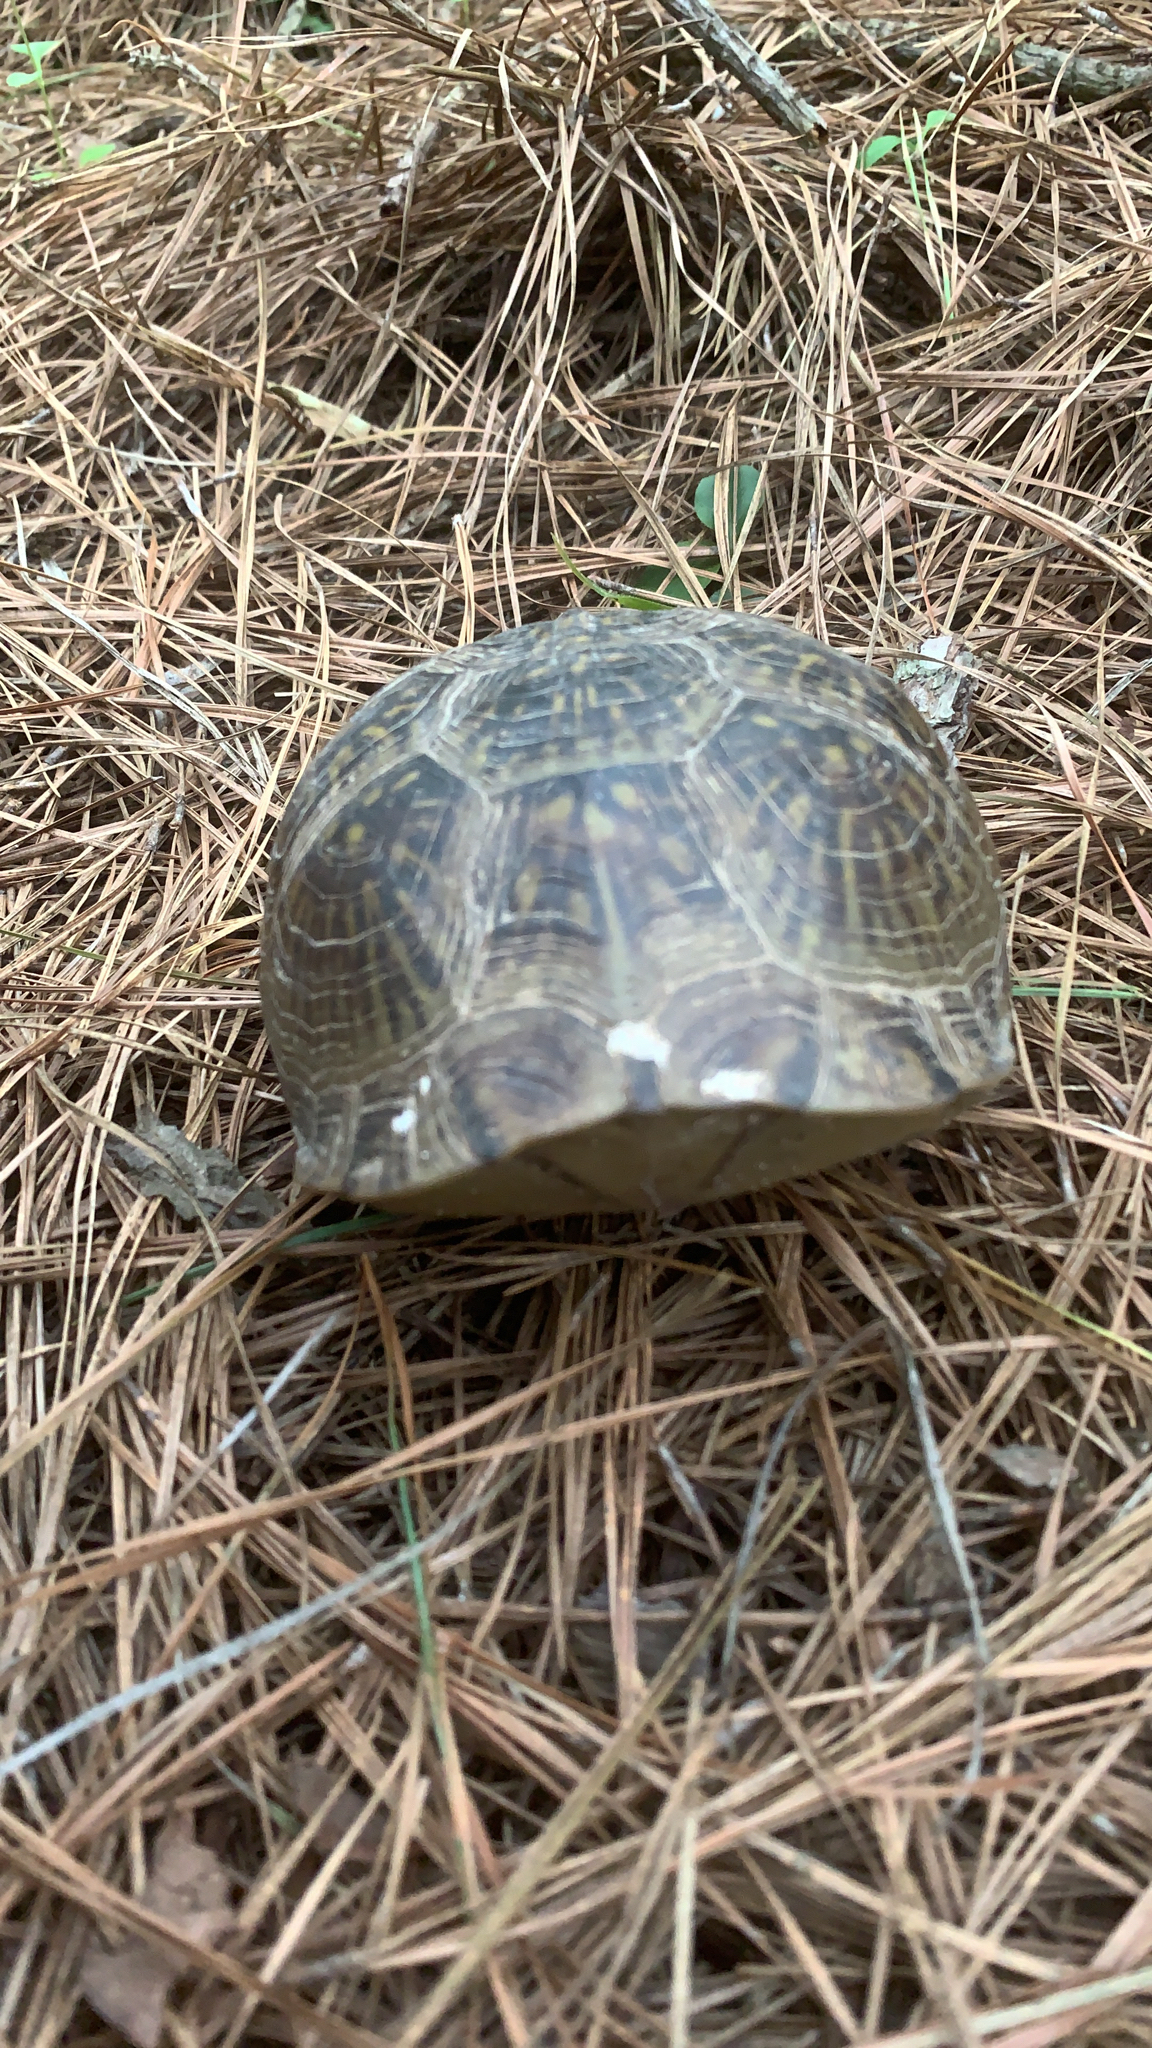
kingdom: Animalia
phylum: Chordata
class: Testudines
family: Emydidae
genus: Terrapene
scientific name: Terrapene carolina
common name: Common box turtle
